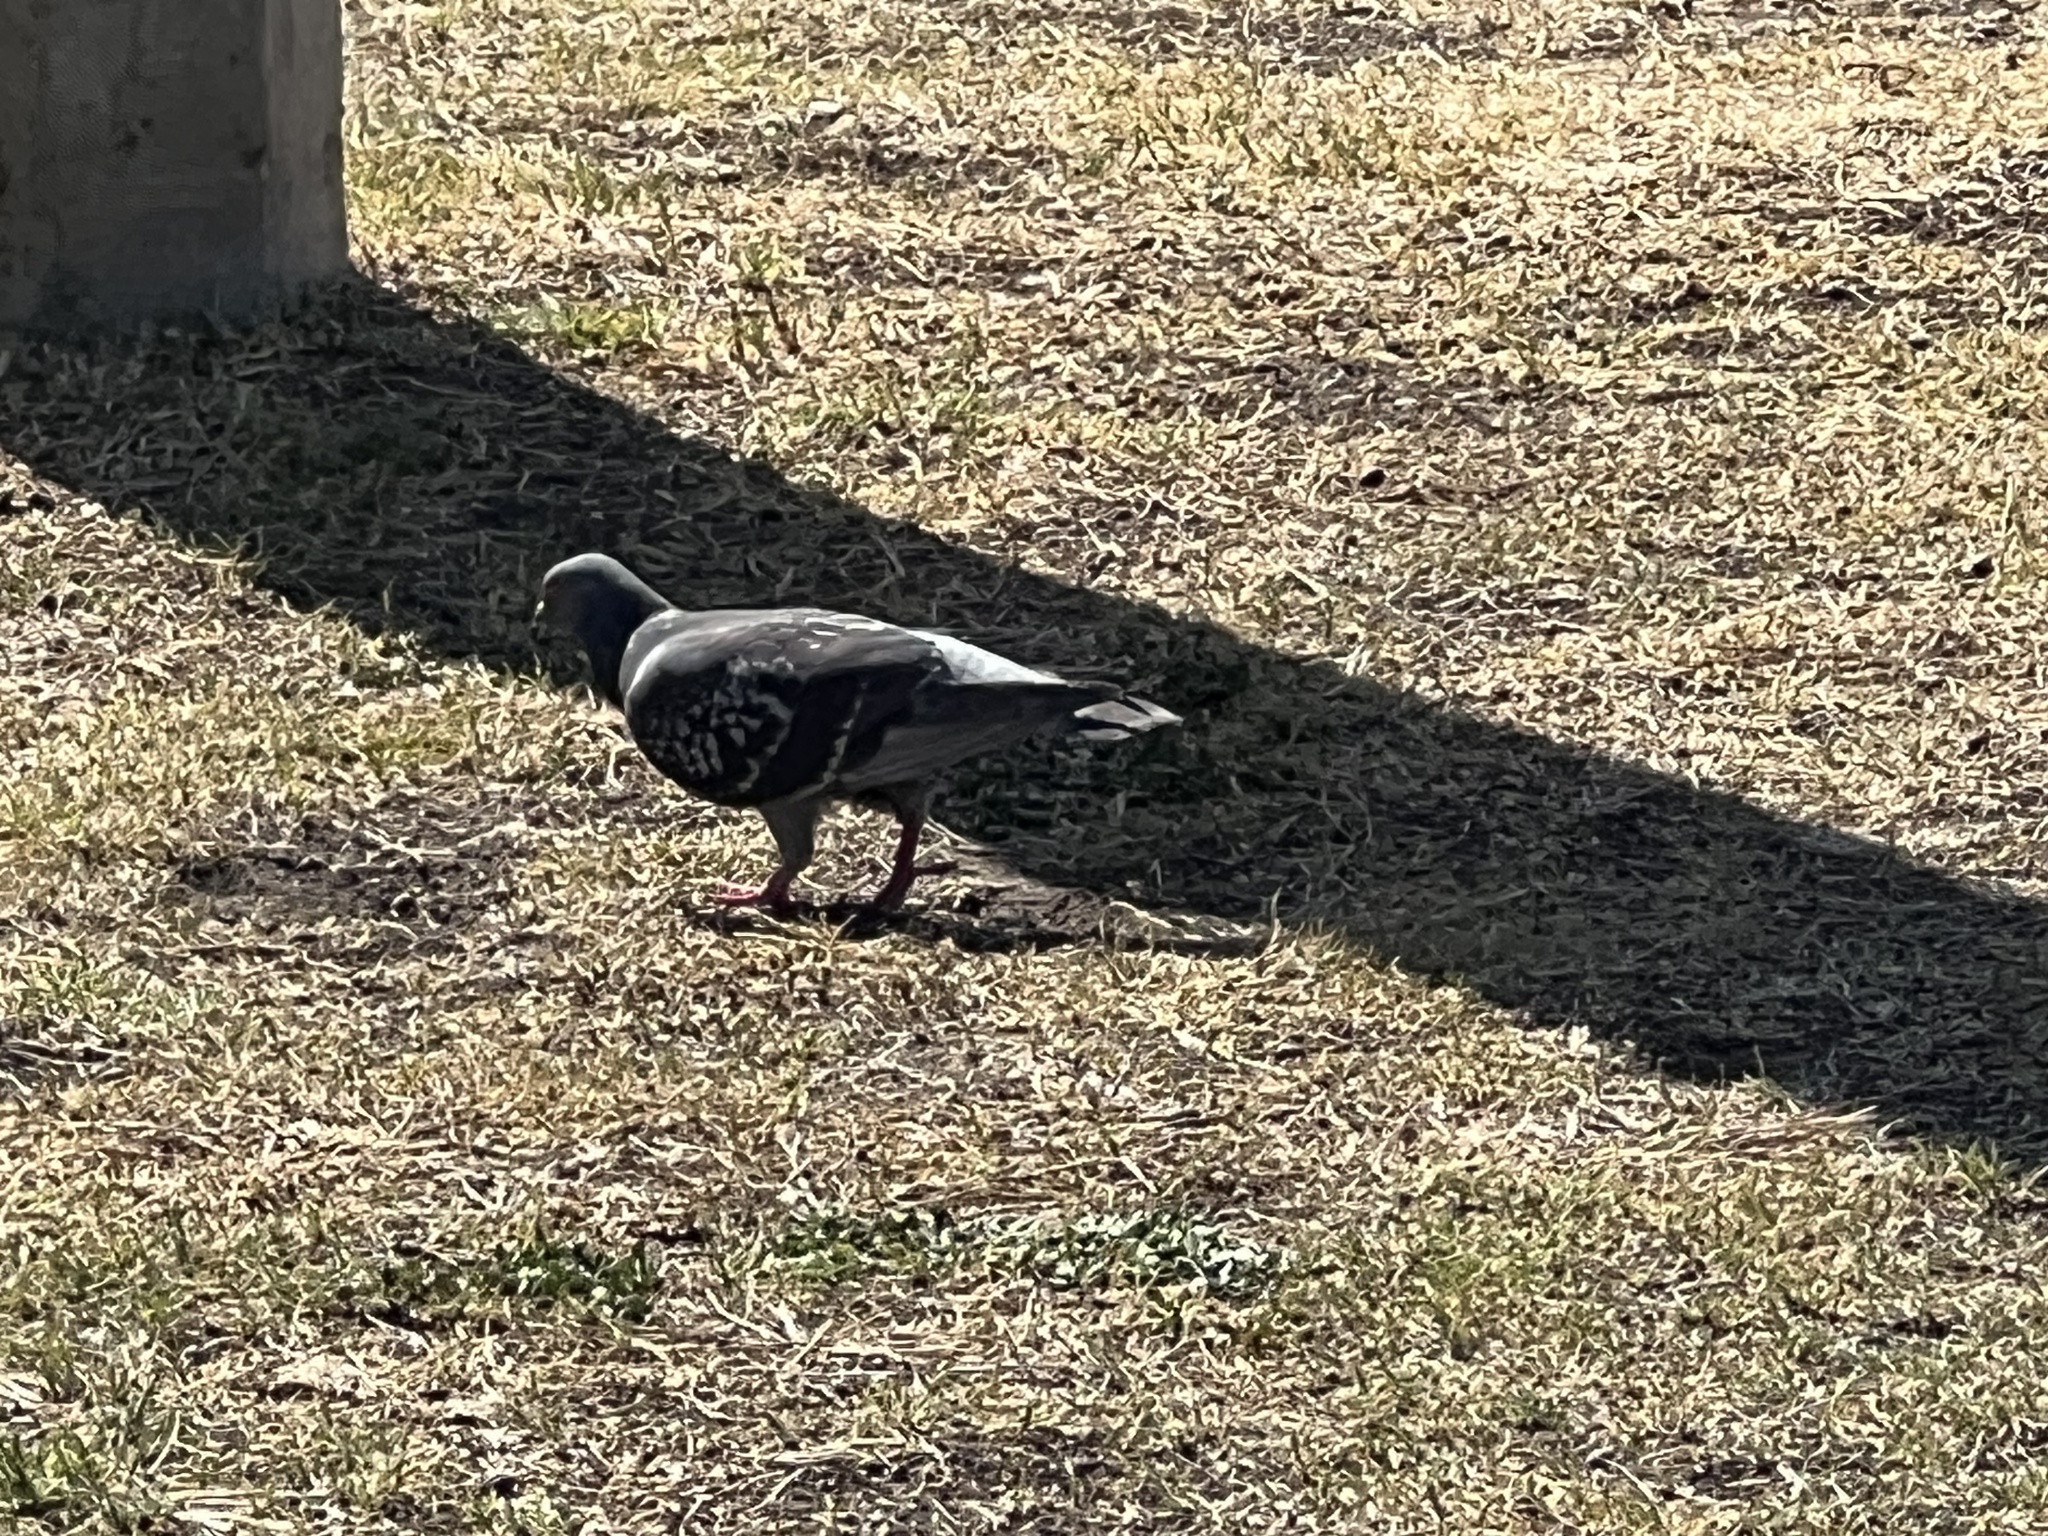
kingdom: Animalia
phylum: Chordata
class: Aves
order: Columbiformes
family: Columbidae
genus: Columba
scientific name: Columba livia
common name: Rock pigeon
